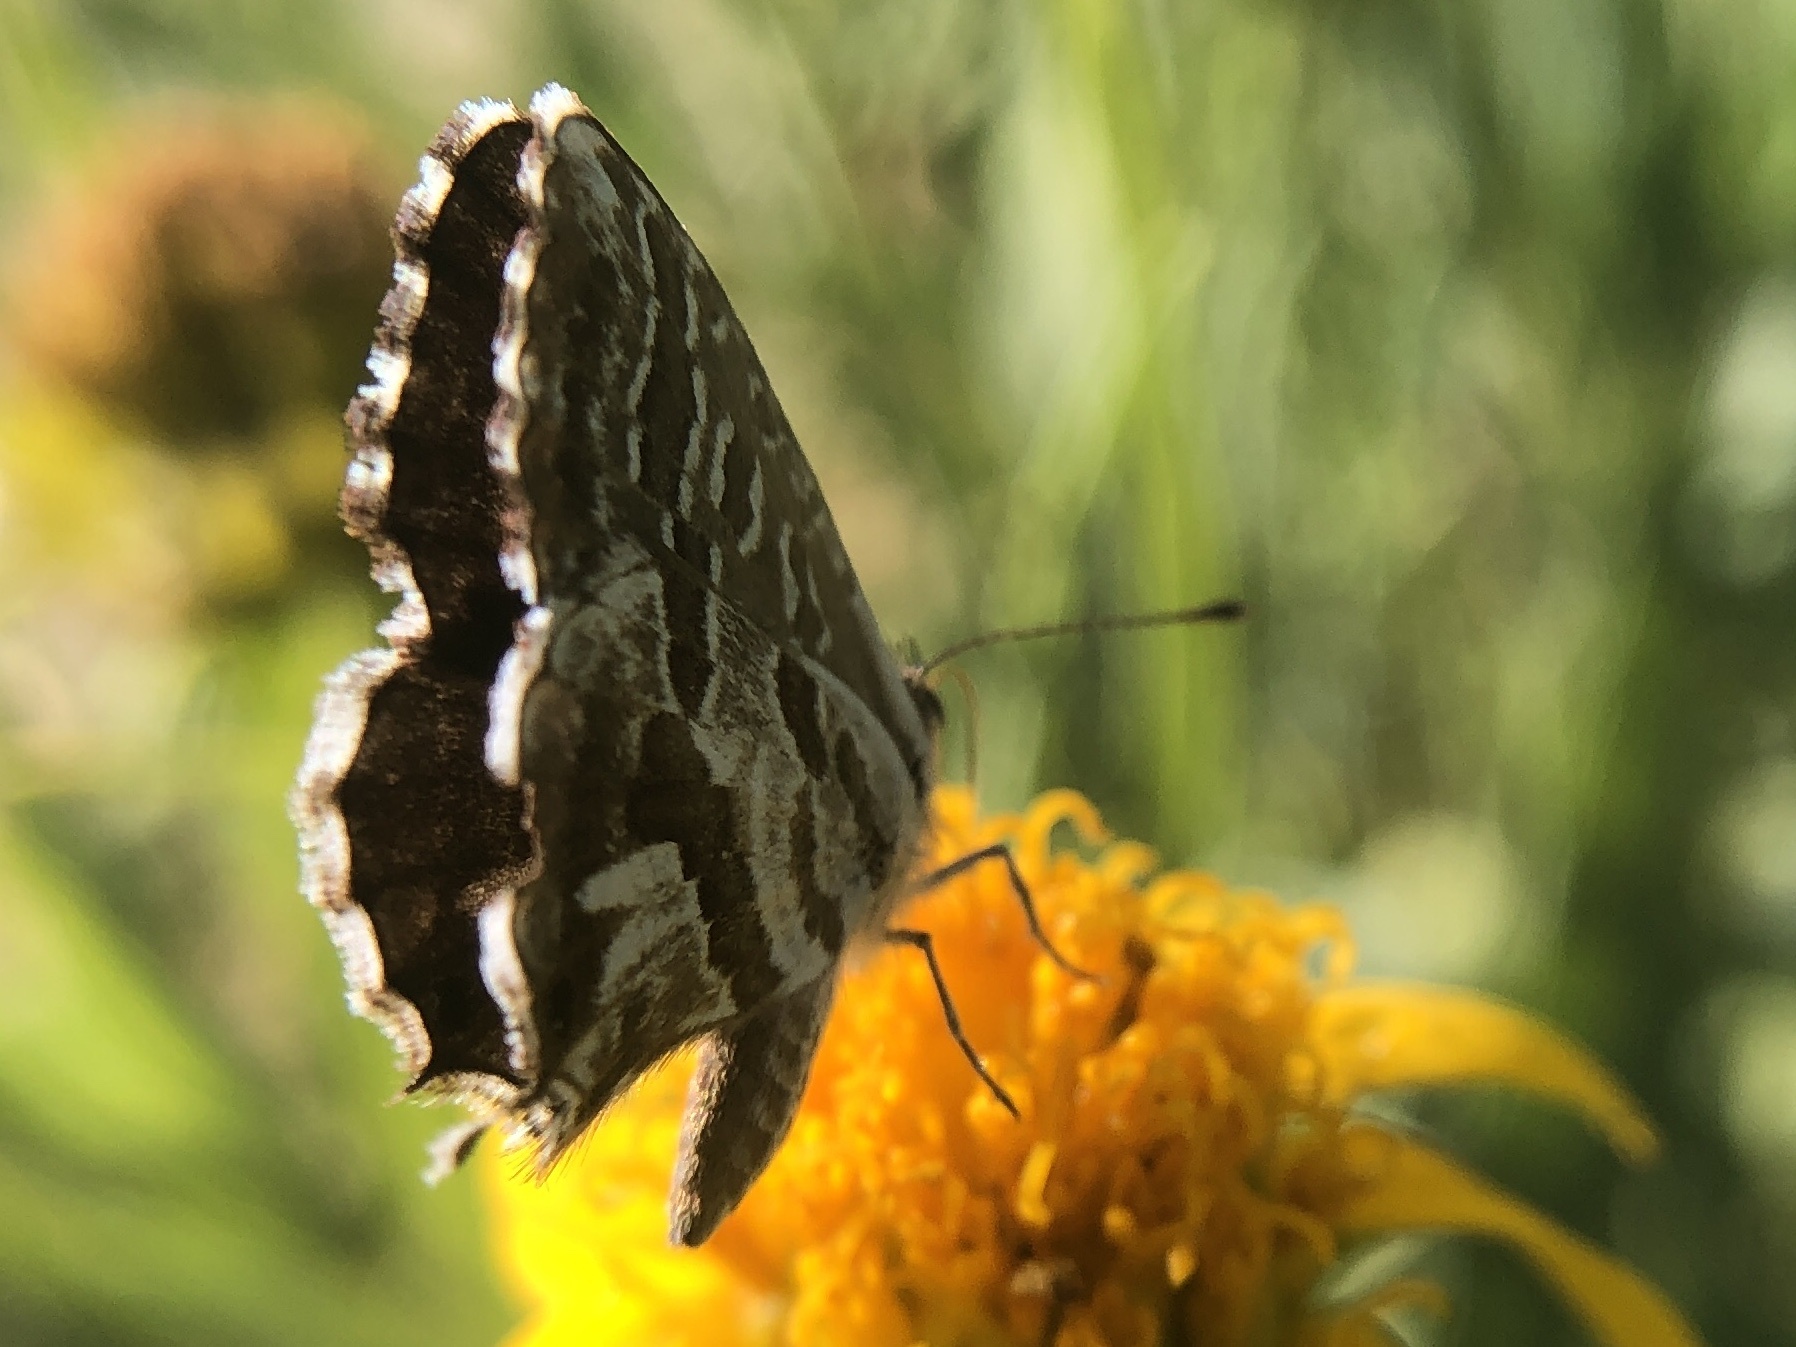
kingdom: Animalia
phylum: Arthropoda
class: Insecta
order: Lepidoptera
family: Lycaenidae
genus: Cacyreus
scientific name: Cacyreus marshalli
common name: Geranium bronze
